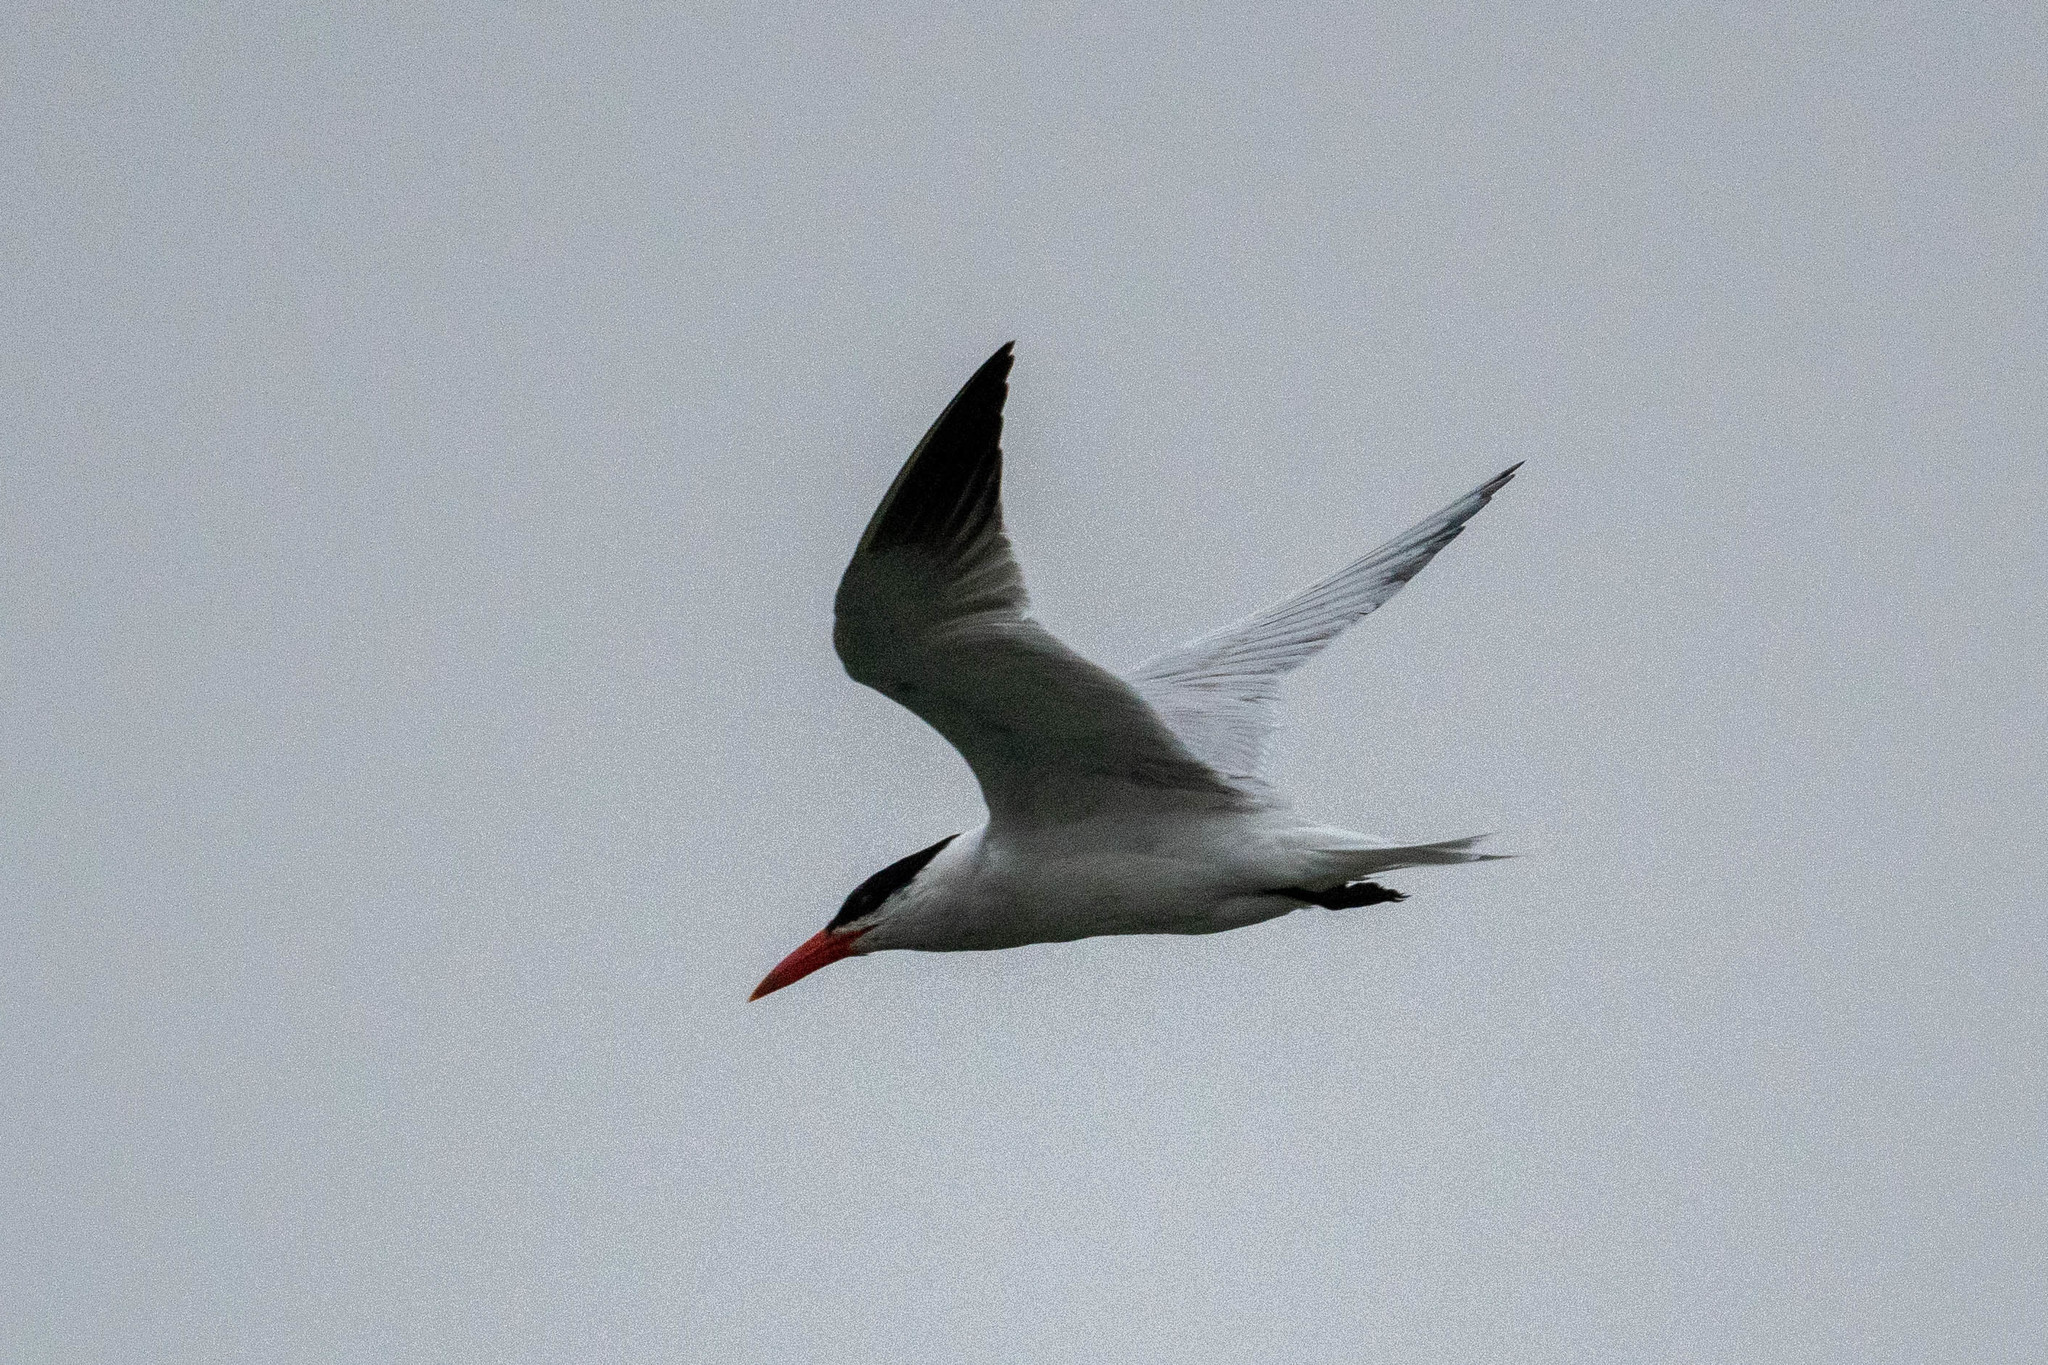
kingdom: Animalia
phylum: Chordata
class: Aves
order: Charadriiformes
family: Laridae
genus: Hydroprogne
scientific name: Hydroprogne caspia
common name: Caspian tern
